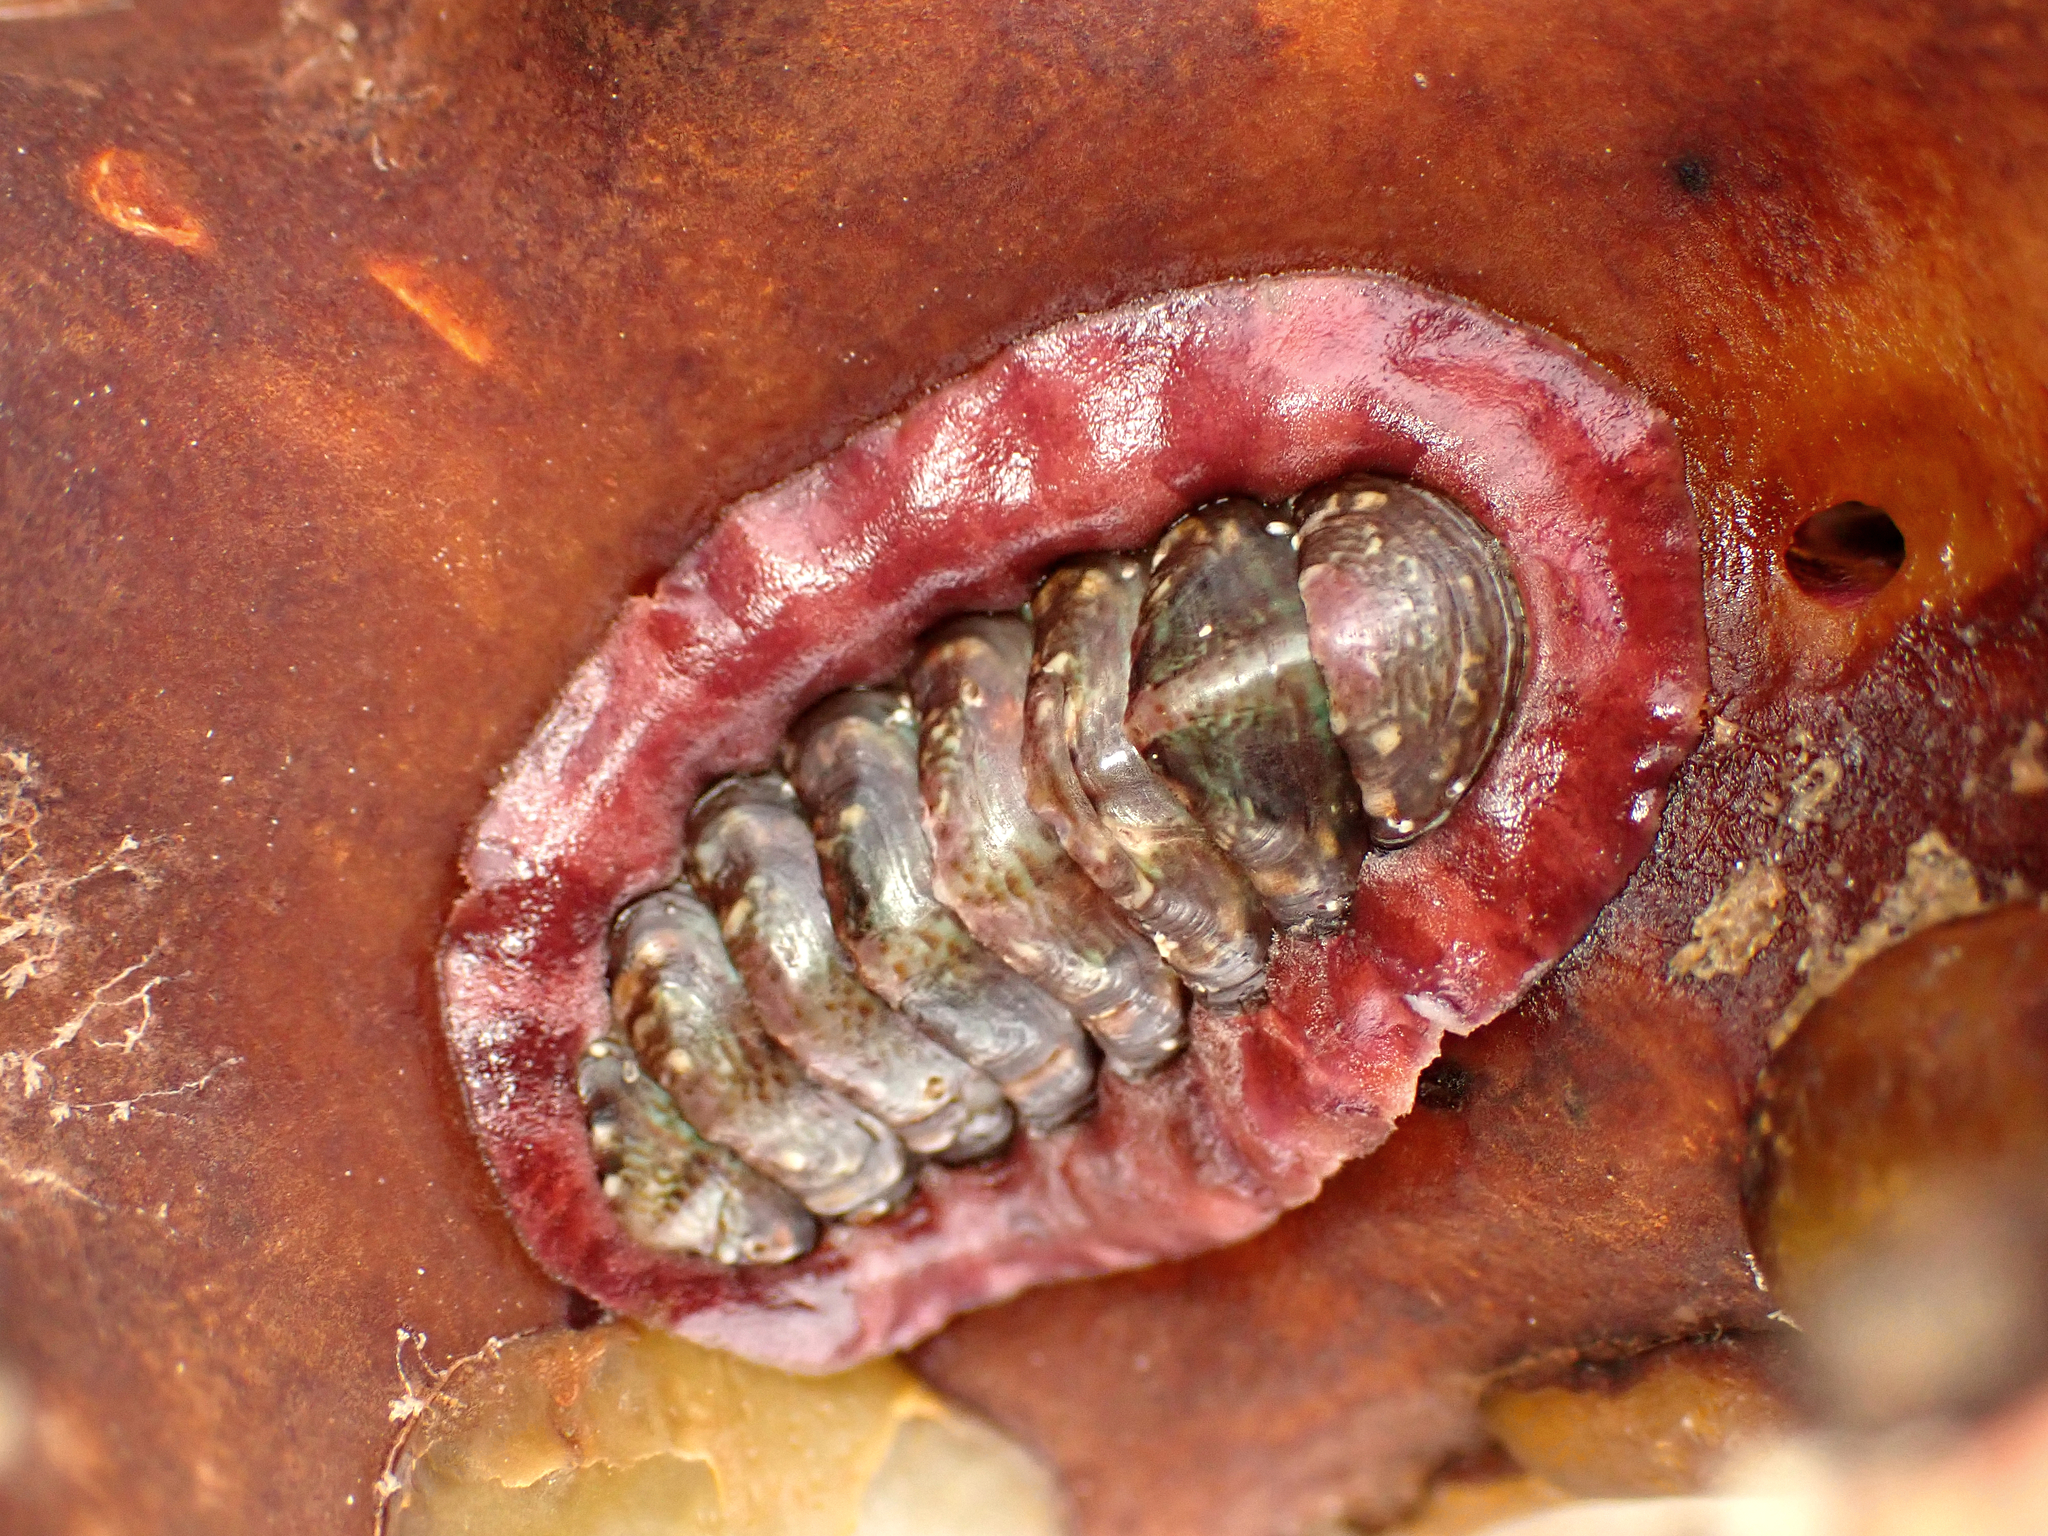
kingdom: Animalia
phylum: Mollusca
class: Polyplacophora
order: Chitonida
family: Chitonidae
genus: Onithochiton
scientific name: Onithochiton neglectus
